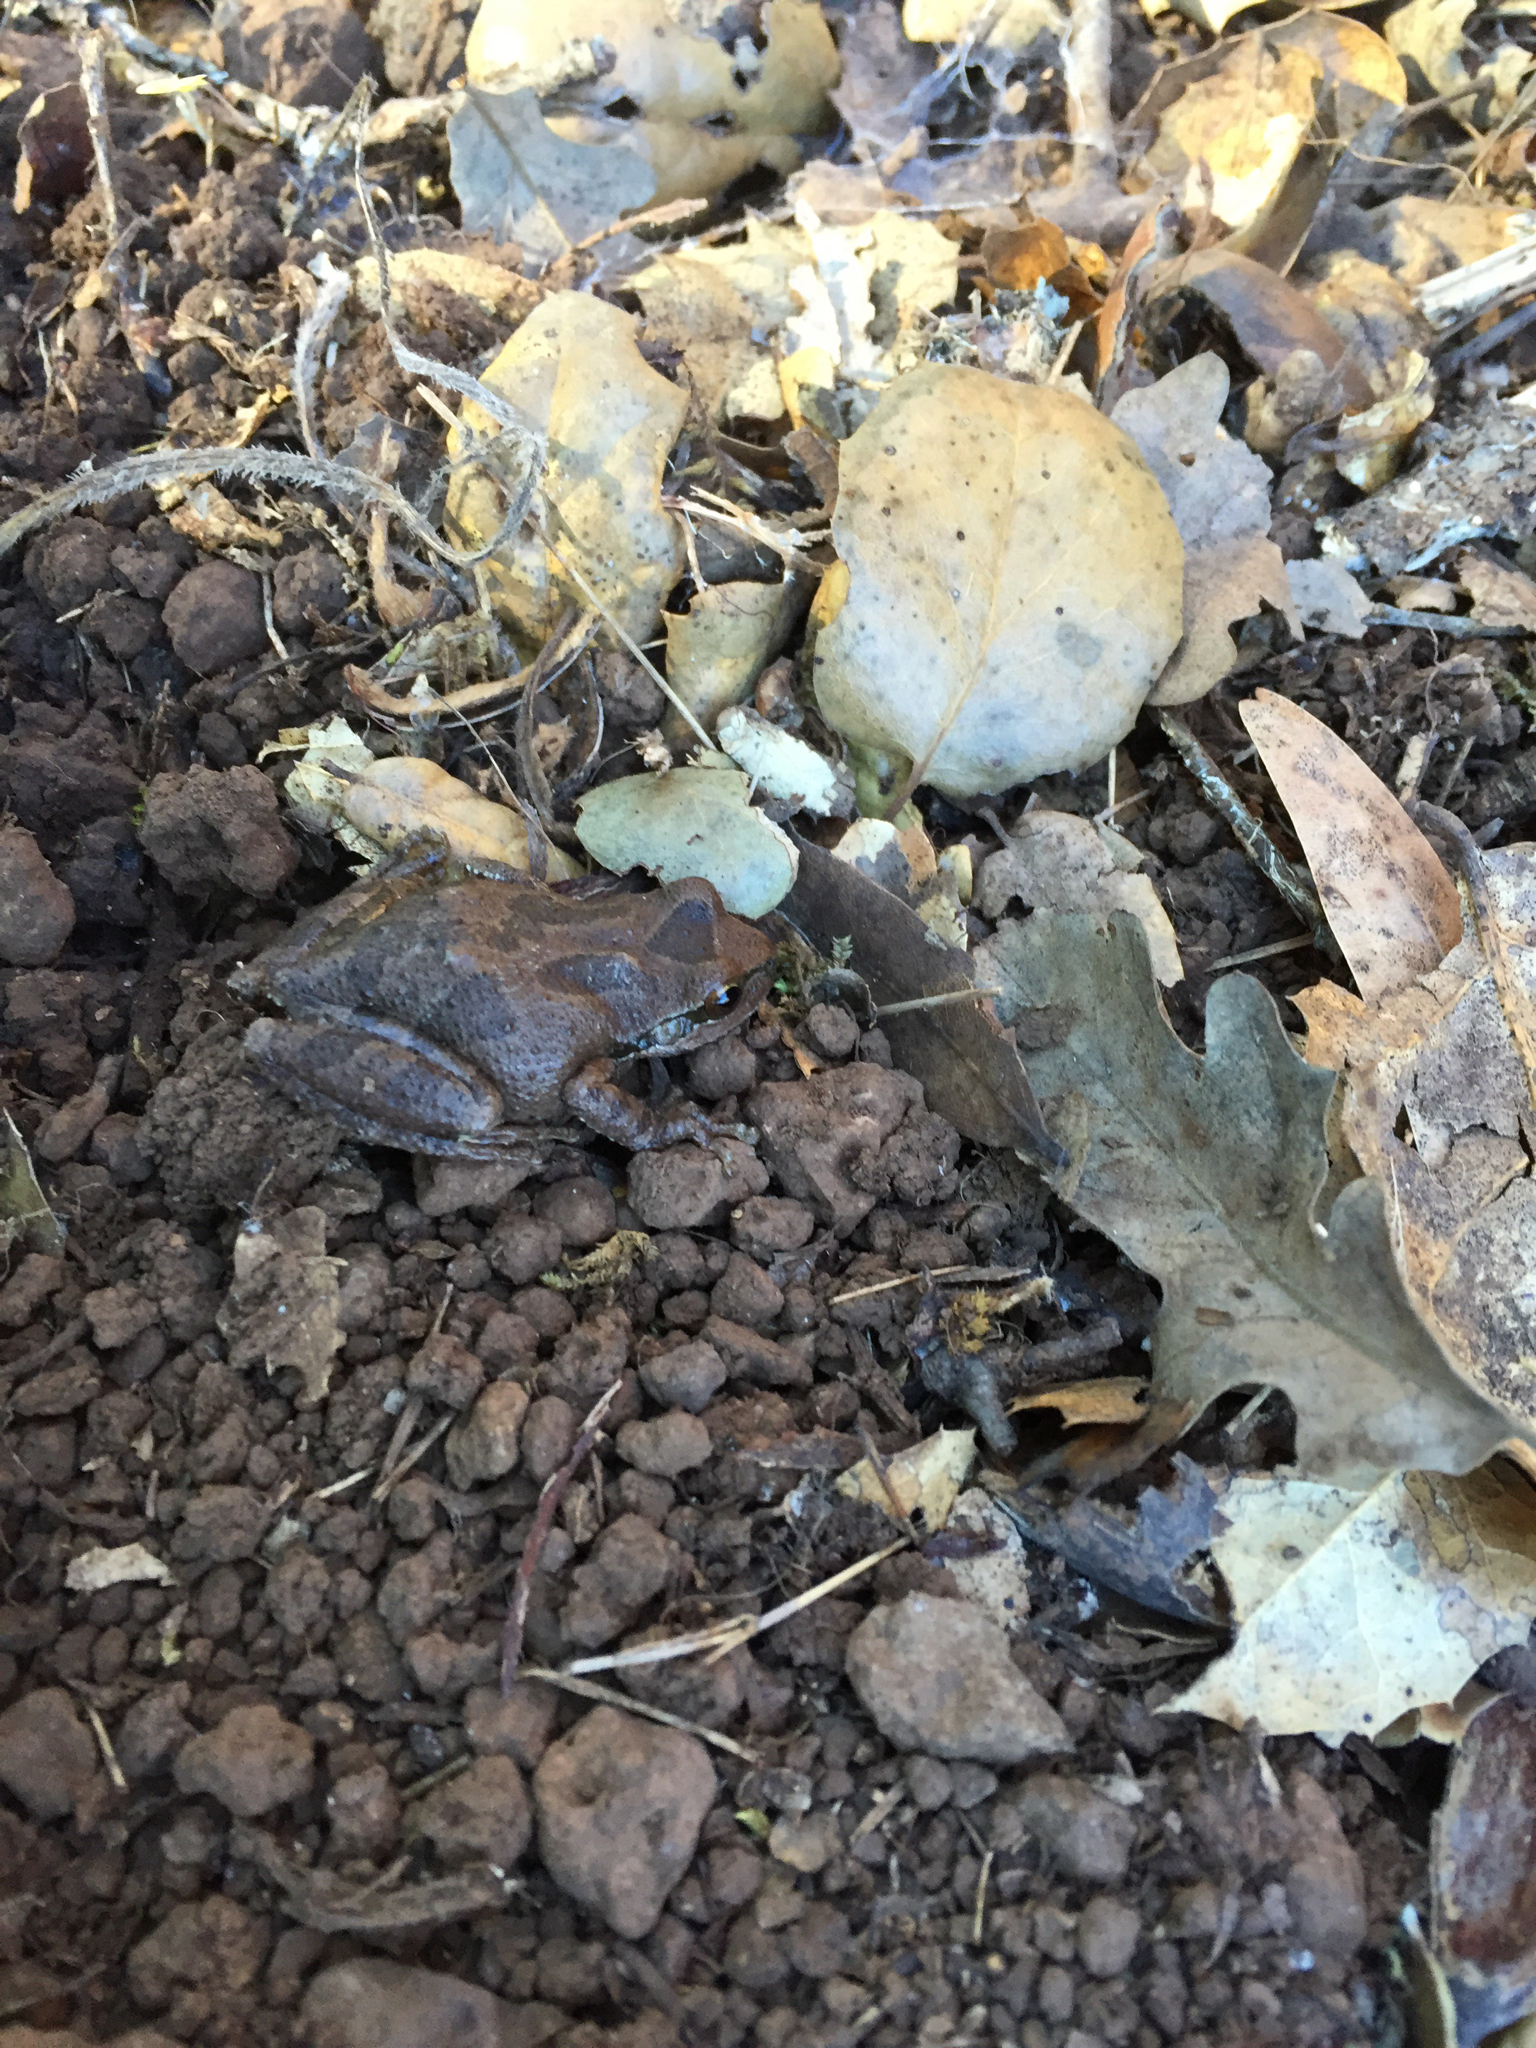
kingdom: Animalia
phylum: Chordata
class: Amphibia
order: Anura
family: Hylidae
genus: Pseudacris
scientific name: Pseudacris regilla
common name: Pacific chorus frog
